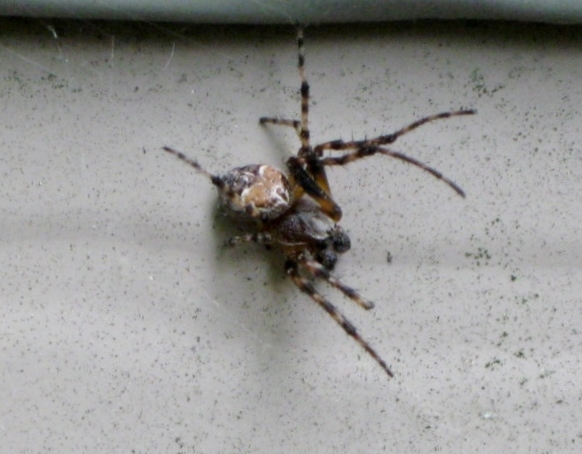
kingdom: Animalia
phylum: Arthropoda
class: Arachnida
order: Araneae
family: Araneidae
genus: Larinioides
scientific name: Larinioides patagiatus
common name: Ornamental orbweaver
